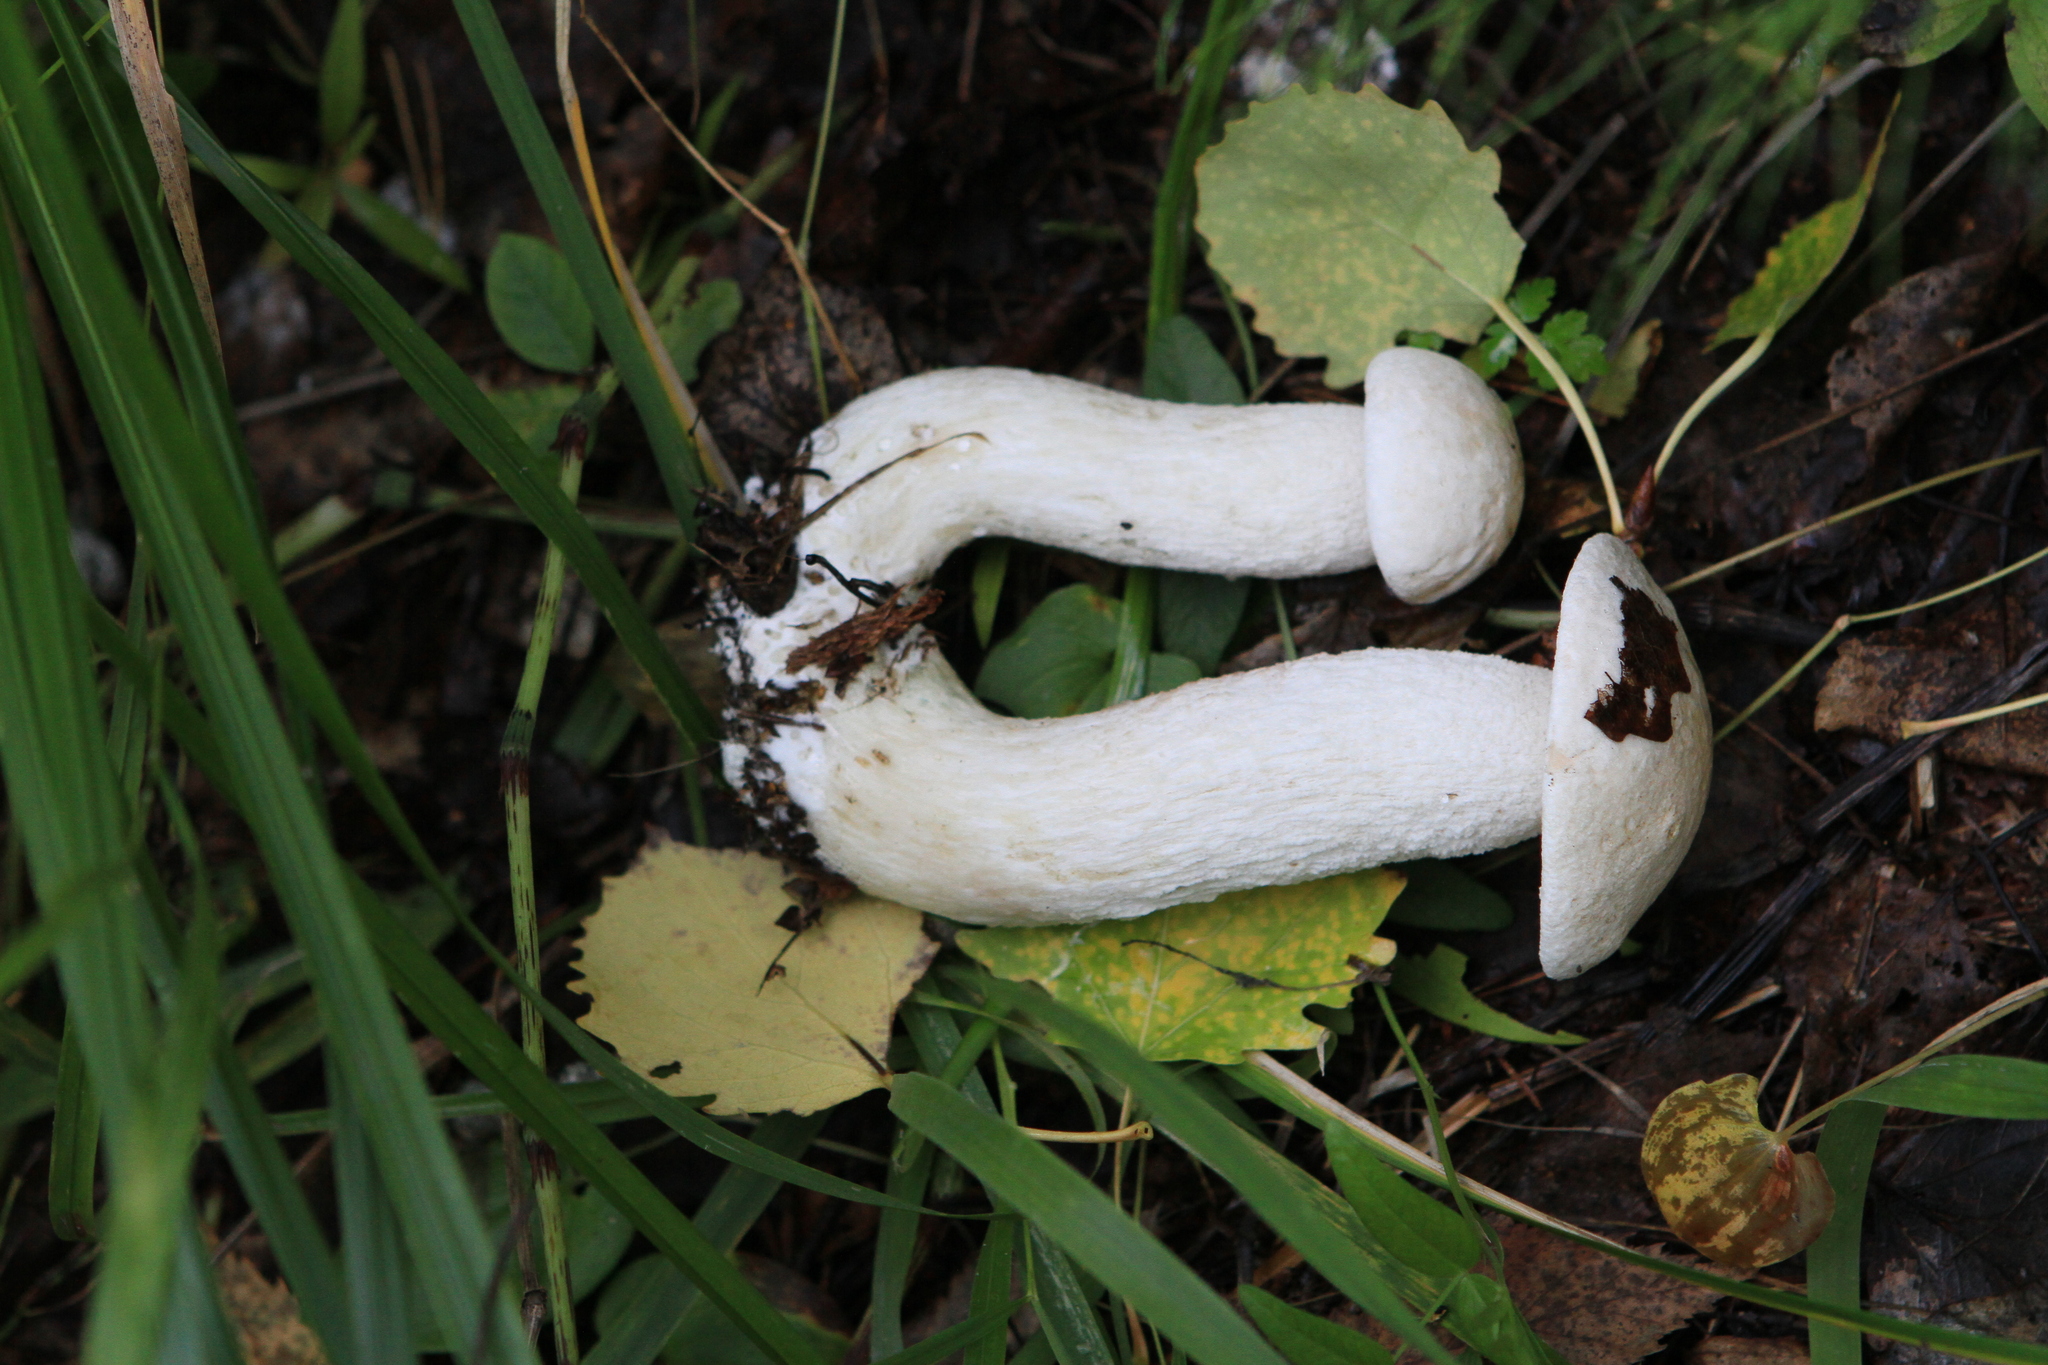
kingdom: Fungi
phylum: Basidiomycota
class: Agaricomycetes
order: Boletales
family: Boletaceae
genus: Leccinum
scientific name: Leccinum versipelle
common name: Orange birch bolete
